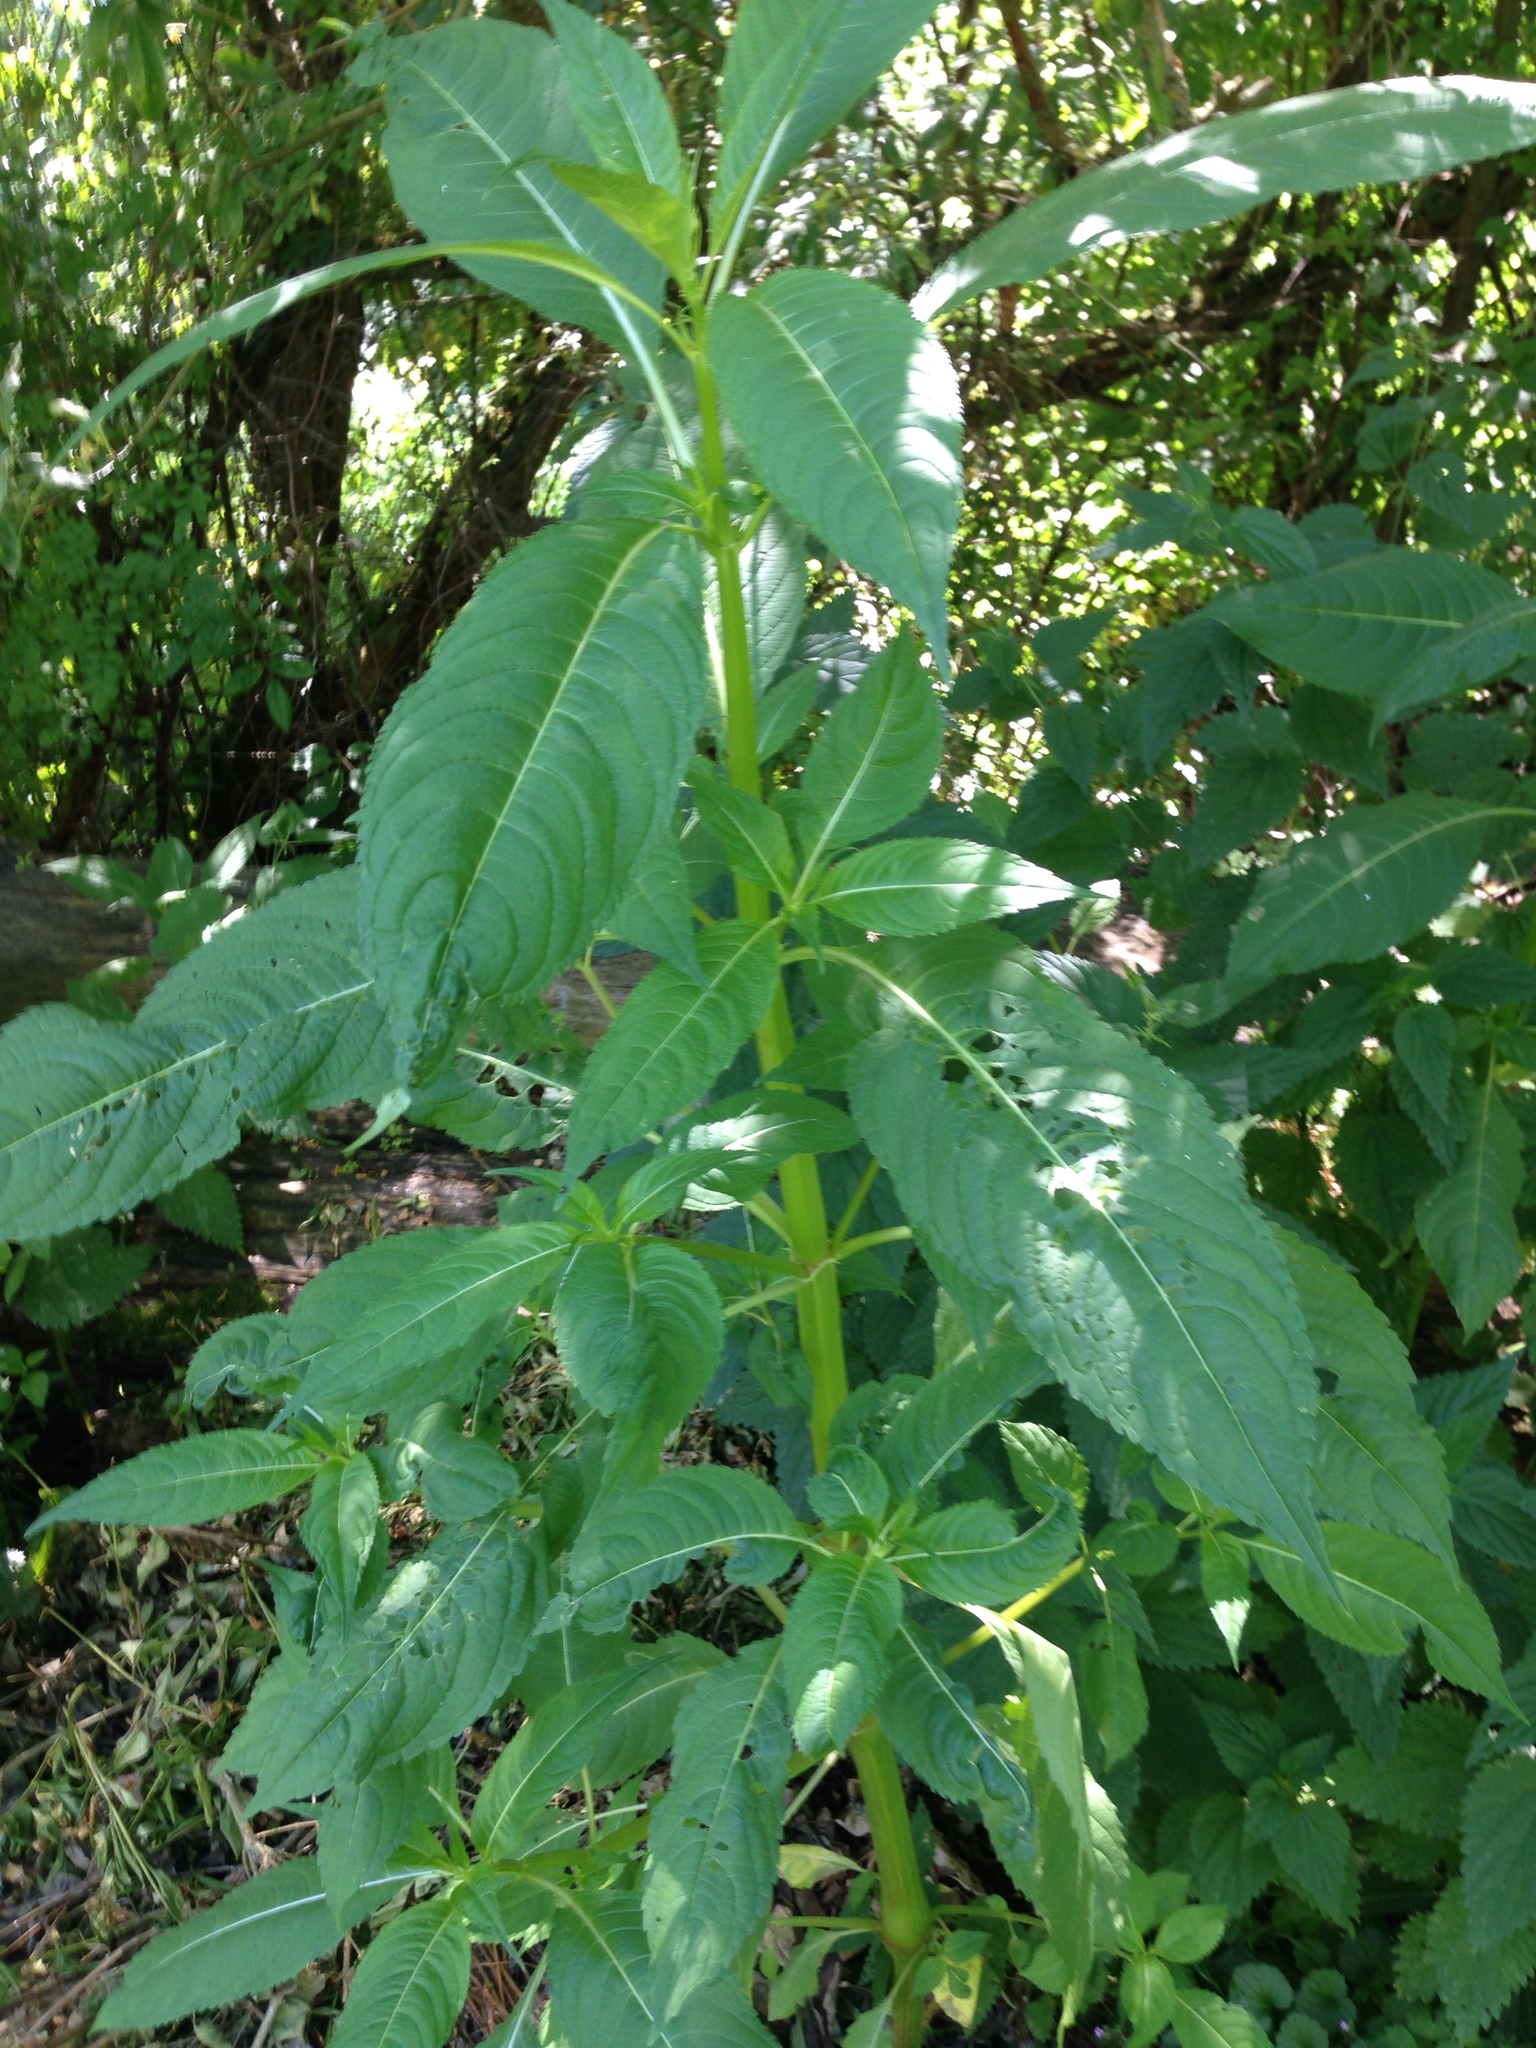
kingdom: Plantae
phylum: Tracheophyta
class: Magnoliopsida
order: Ericales
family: Balsaminaceae
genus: Impatiens
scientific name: Impatiens glandulifera
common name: Himalayan balsam
